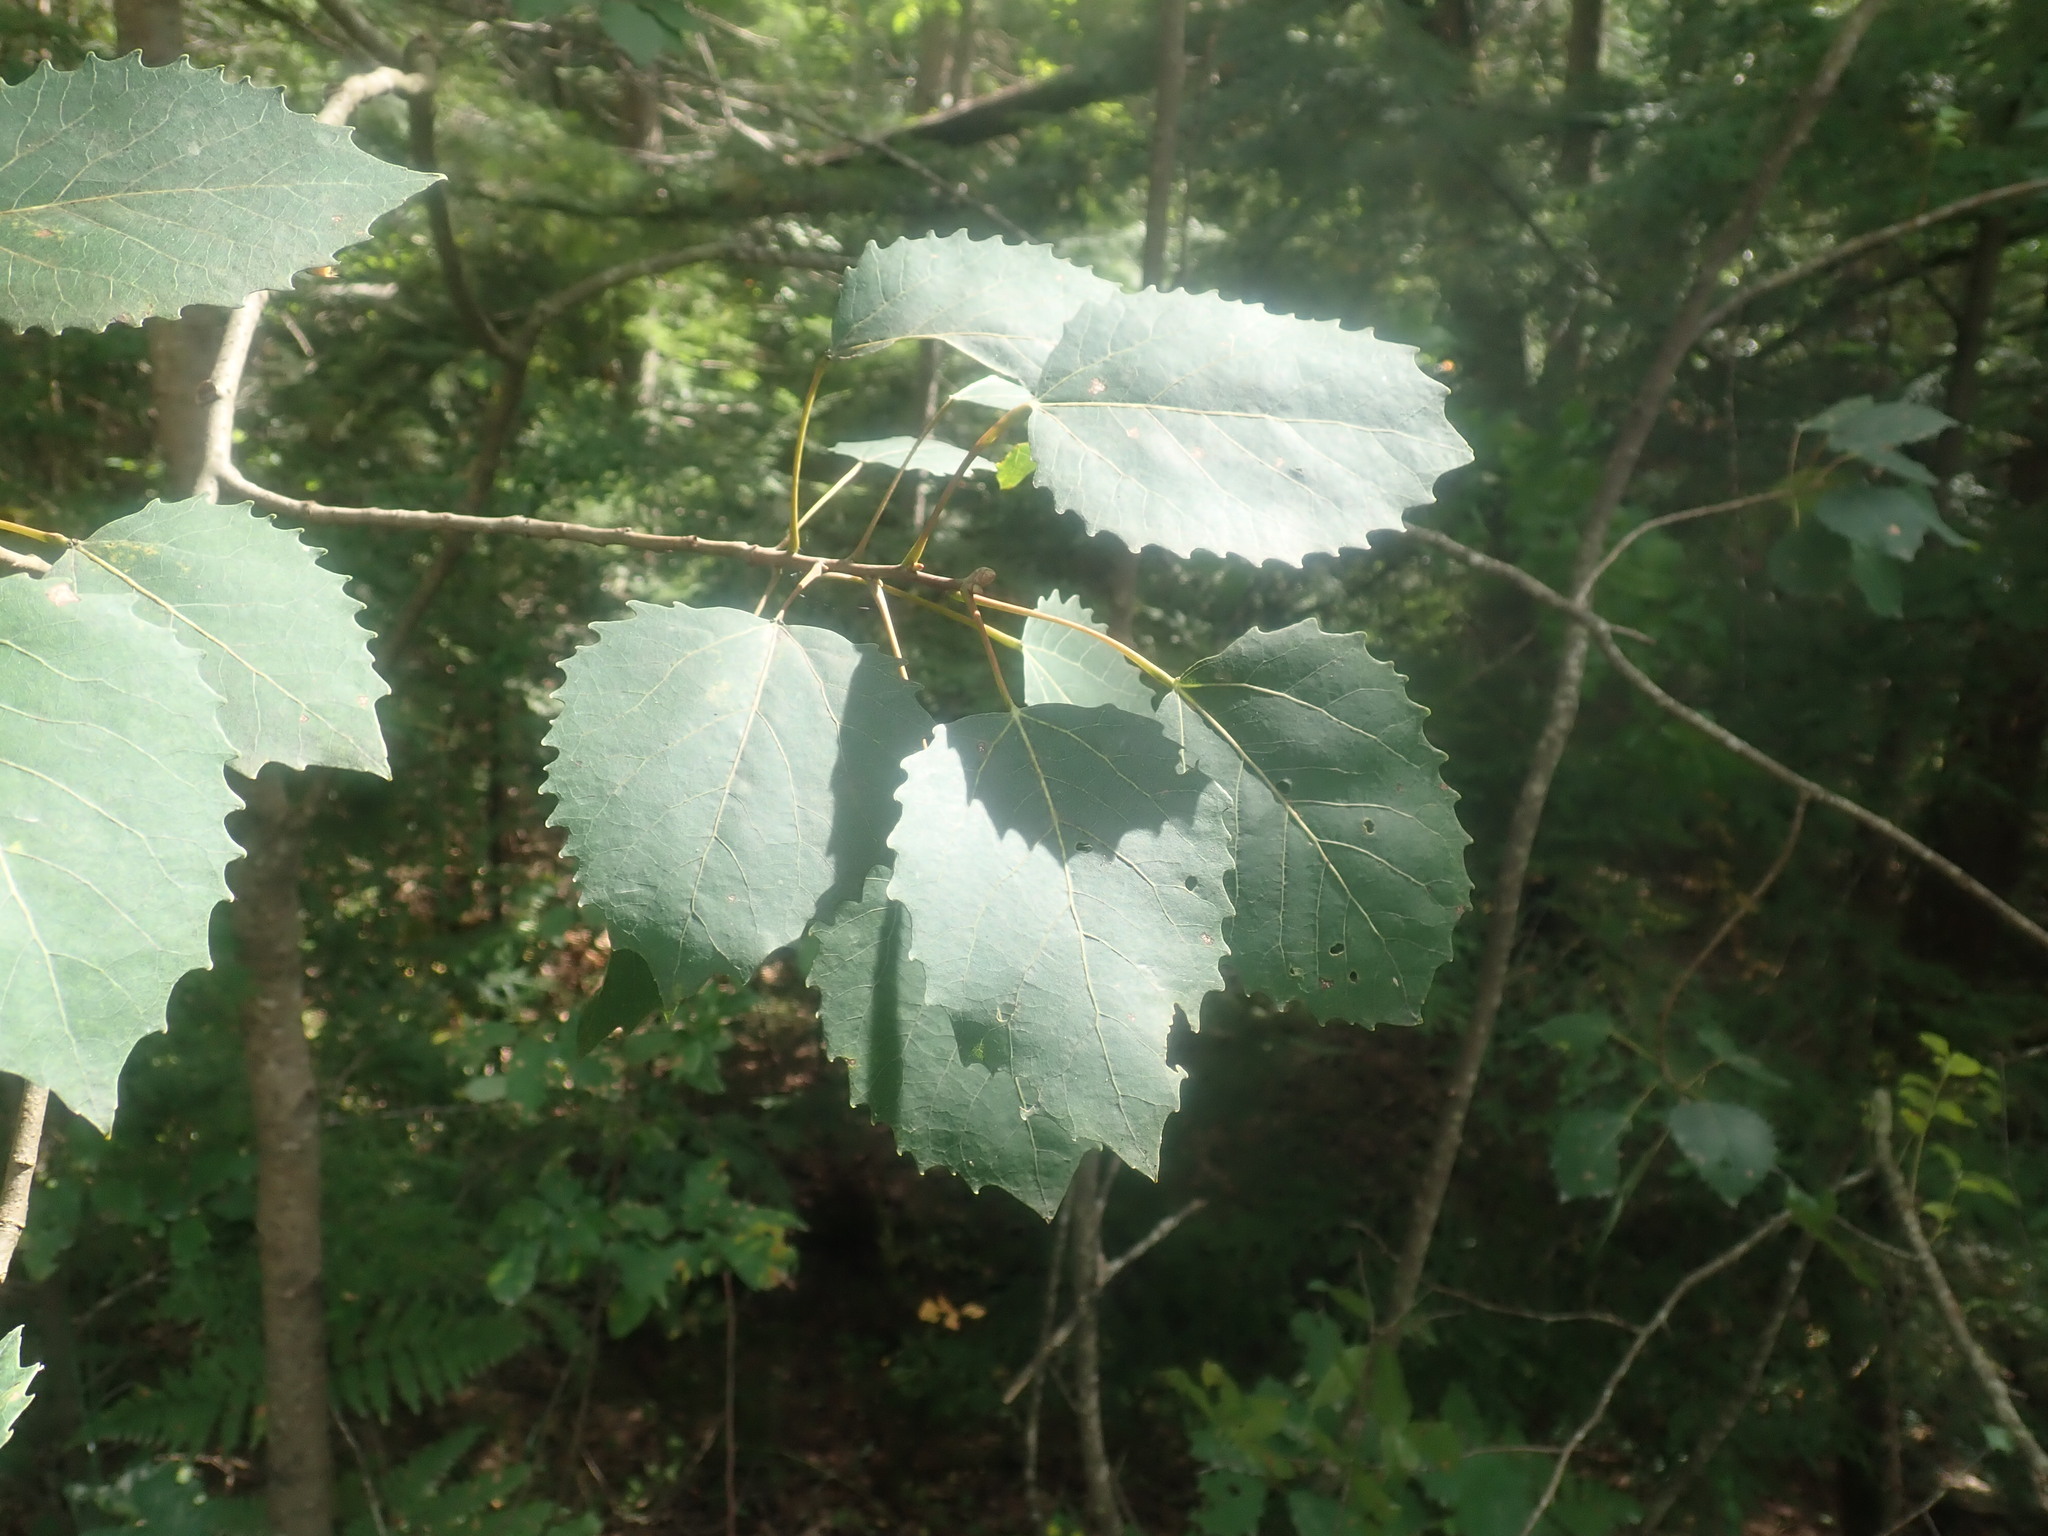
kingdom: Plantae
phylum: Tracheophyta
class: Magnoliopsida
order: Malpighiales
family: Salicaceae
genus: Populus
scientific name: Populus grandidentata
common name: Bigtooth aspen
